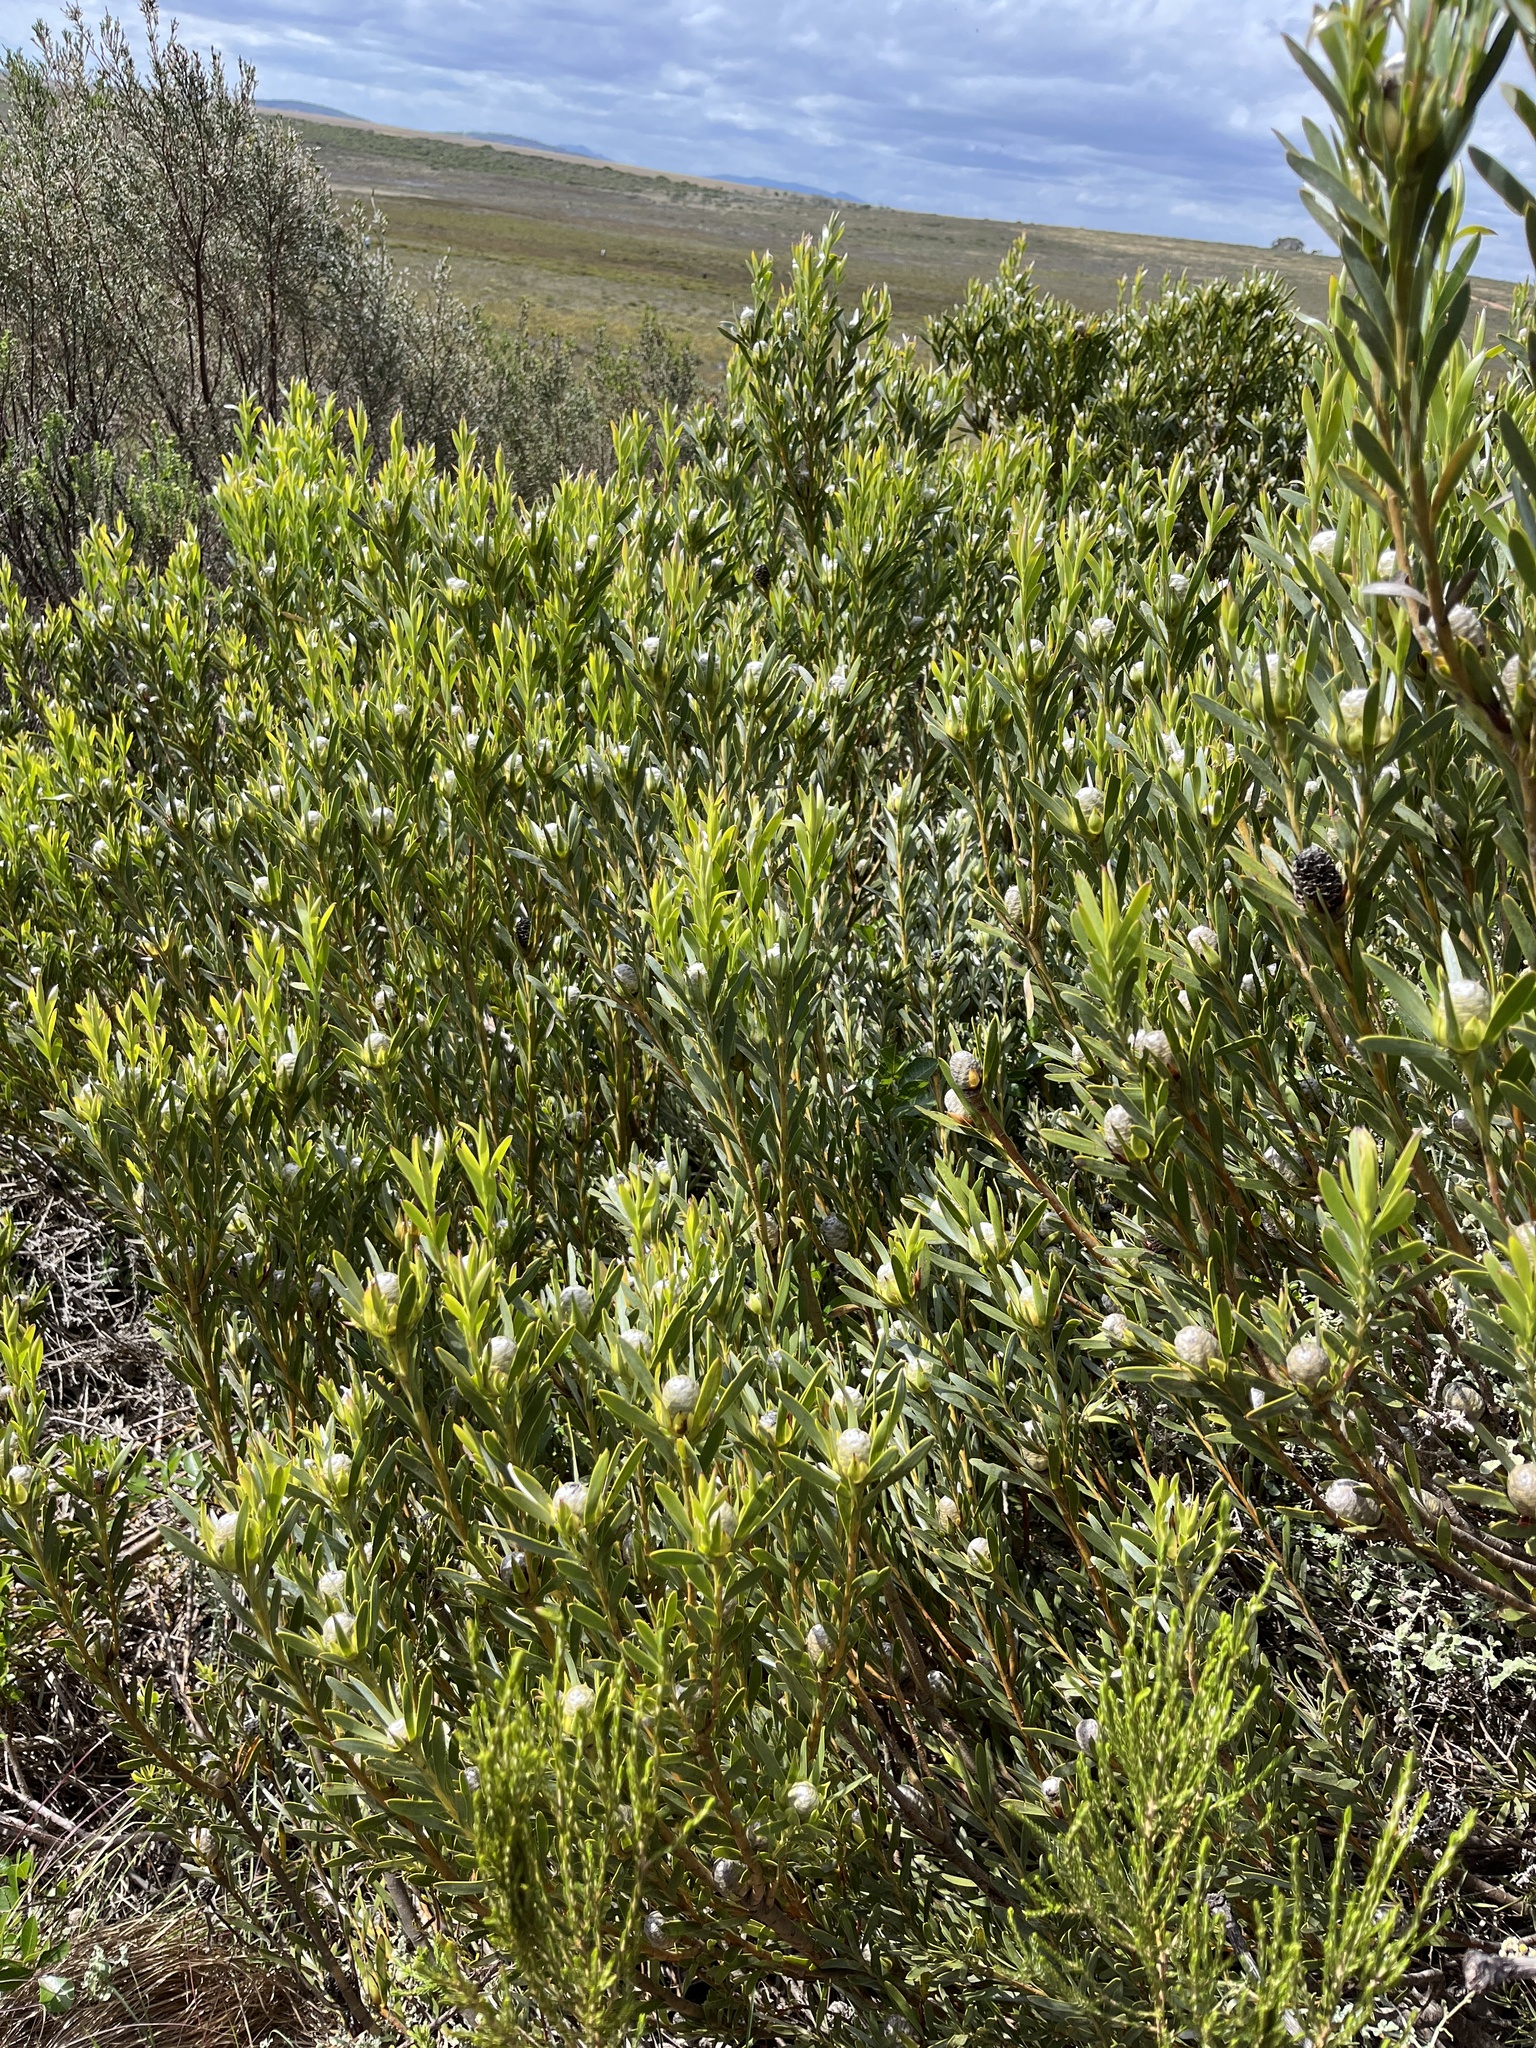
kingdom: Plantae
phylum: Tracheophyta
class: Magnoliopsida
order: Proteales
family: Proteaceae
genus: Leucadendron
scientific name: Leucadendron meridianum
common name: Limestone conebush
